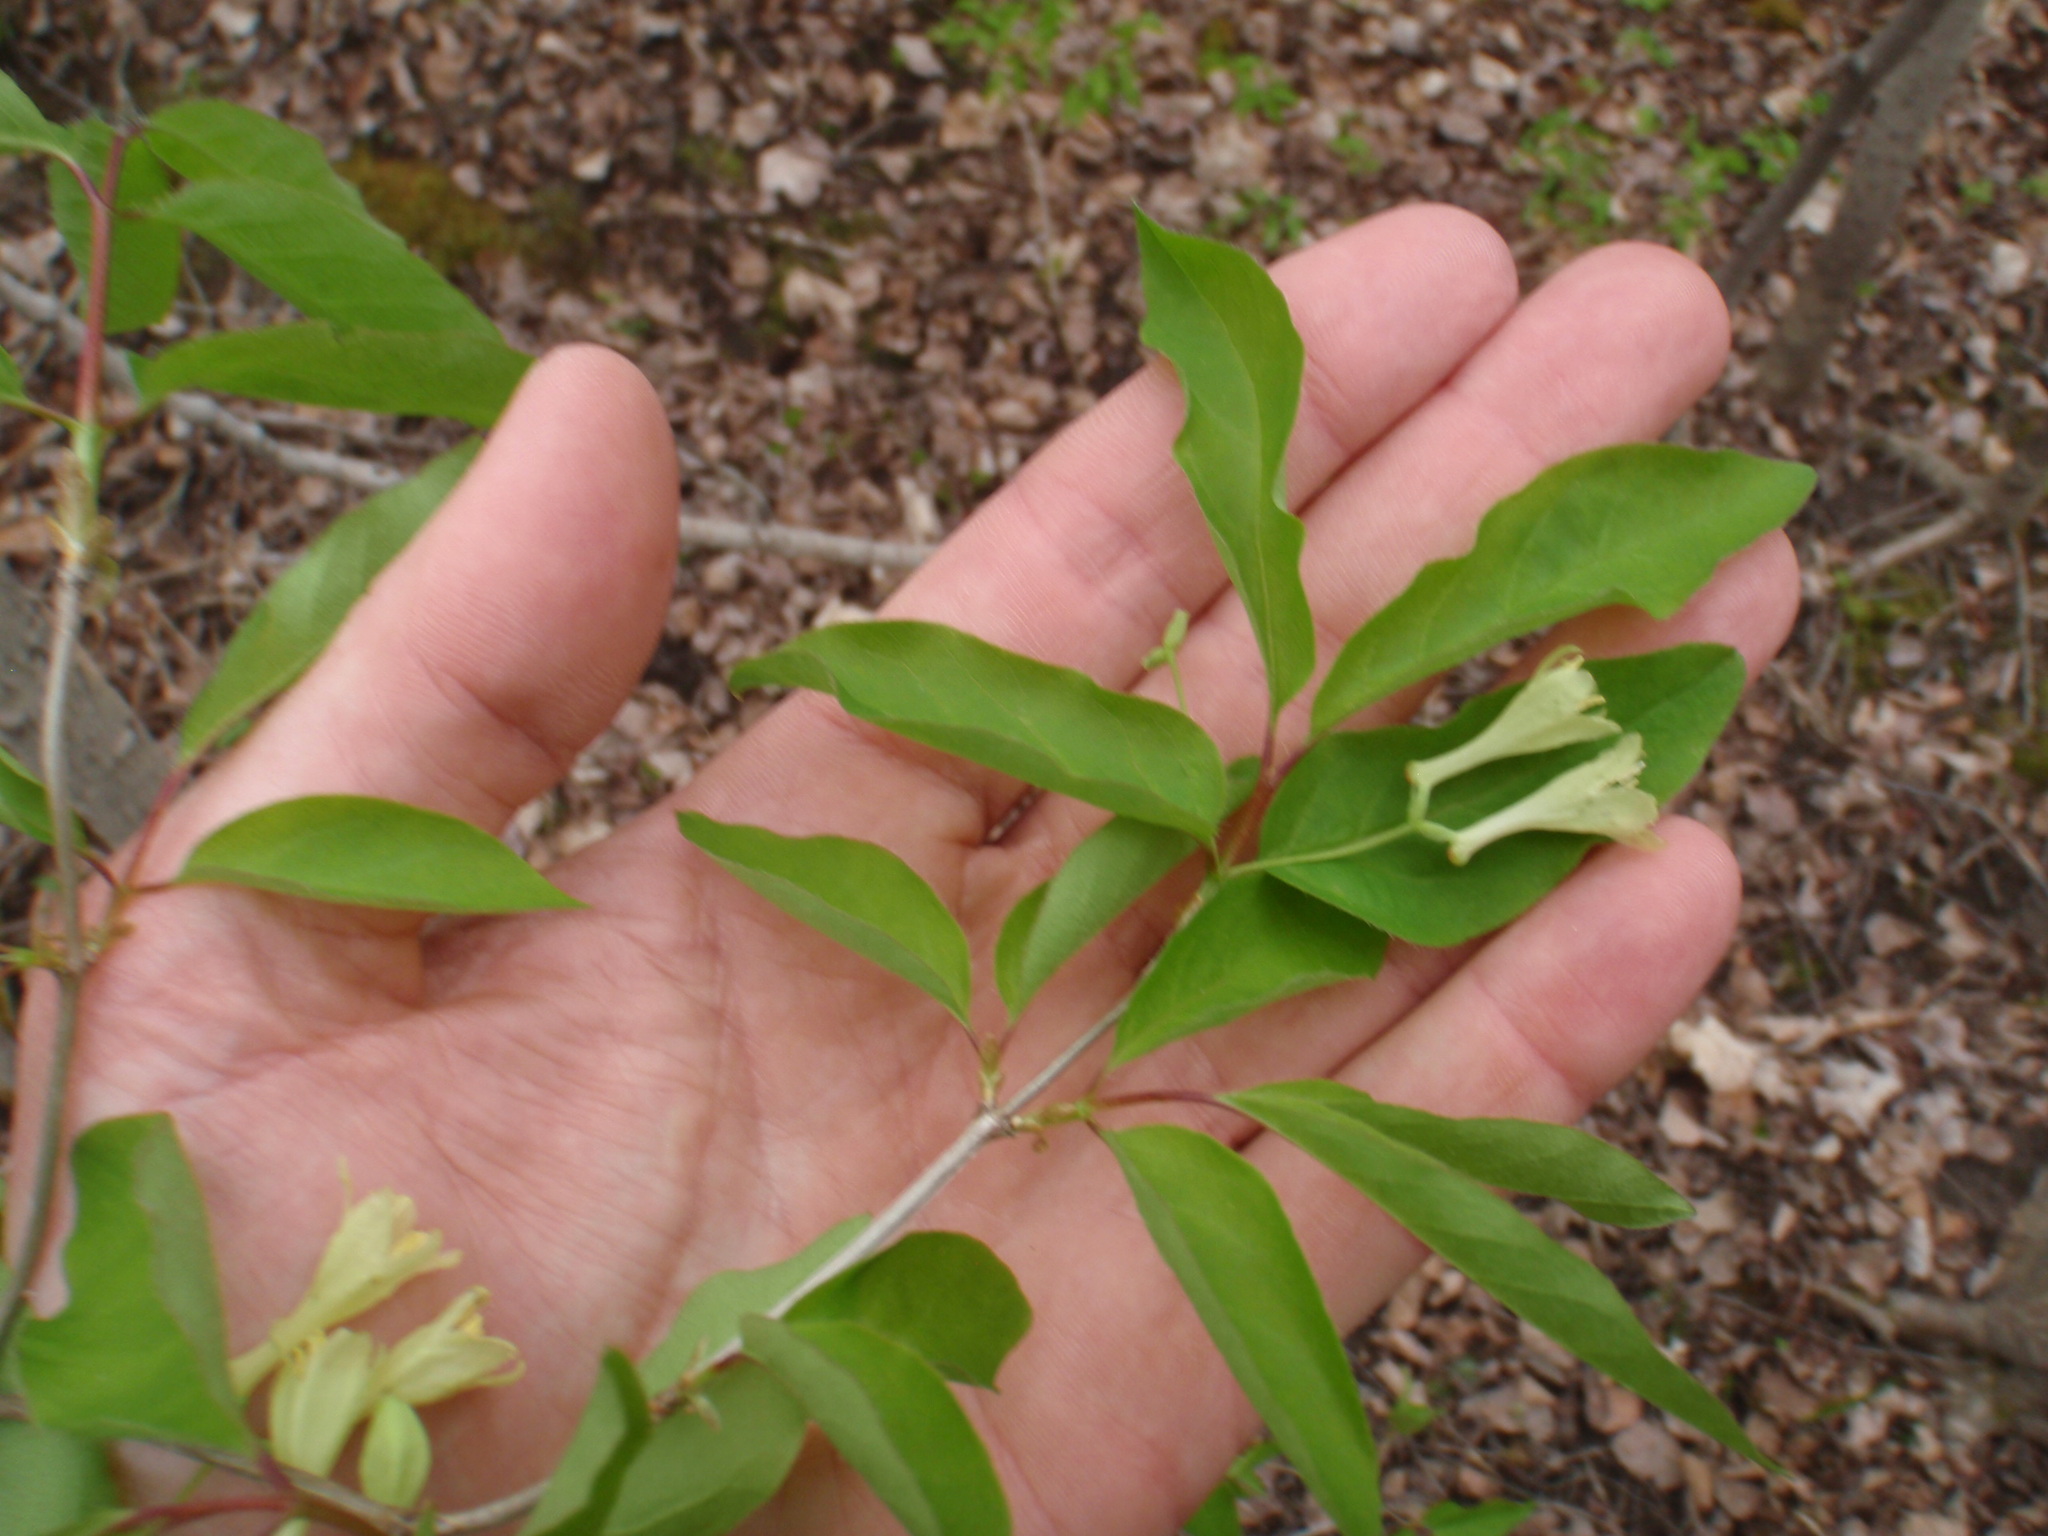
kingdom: Plantae
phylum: Tracheophyta
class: Magnoliopsida
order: Dipsacales
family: Caprifoliaceae
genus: Lonicera
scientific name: Lonicera canadensis
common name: American fly-honeysuckle
